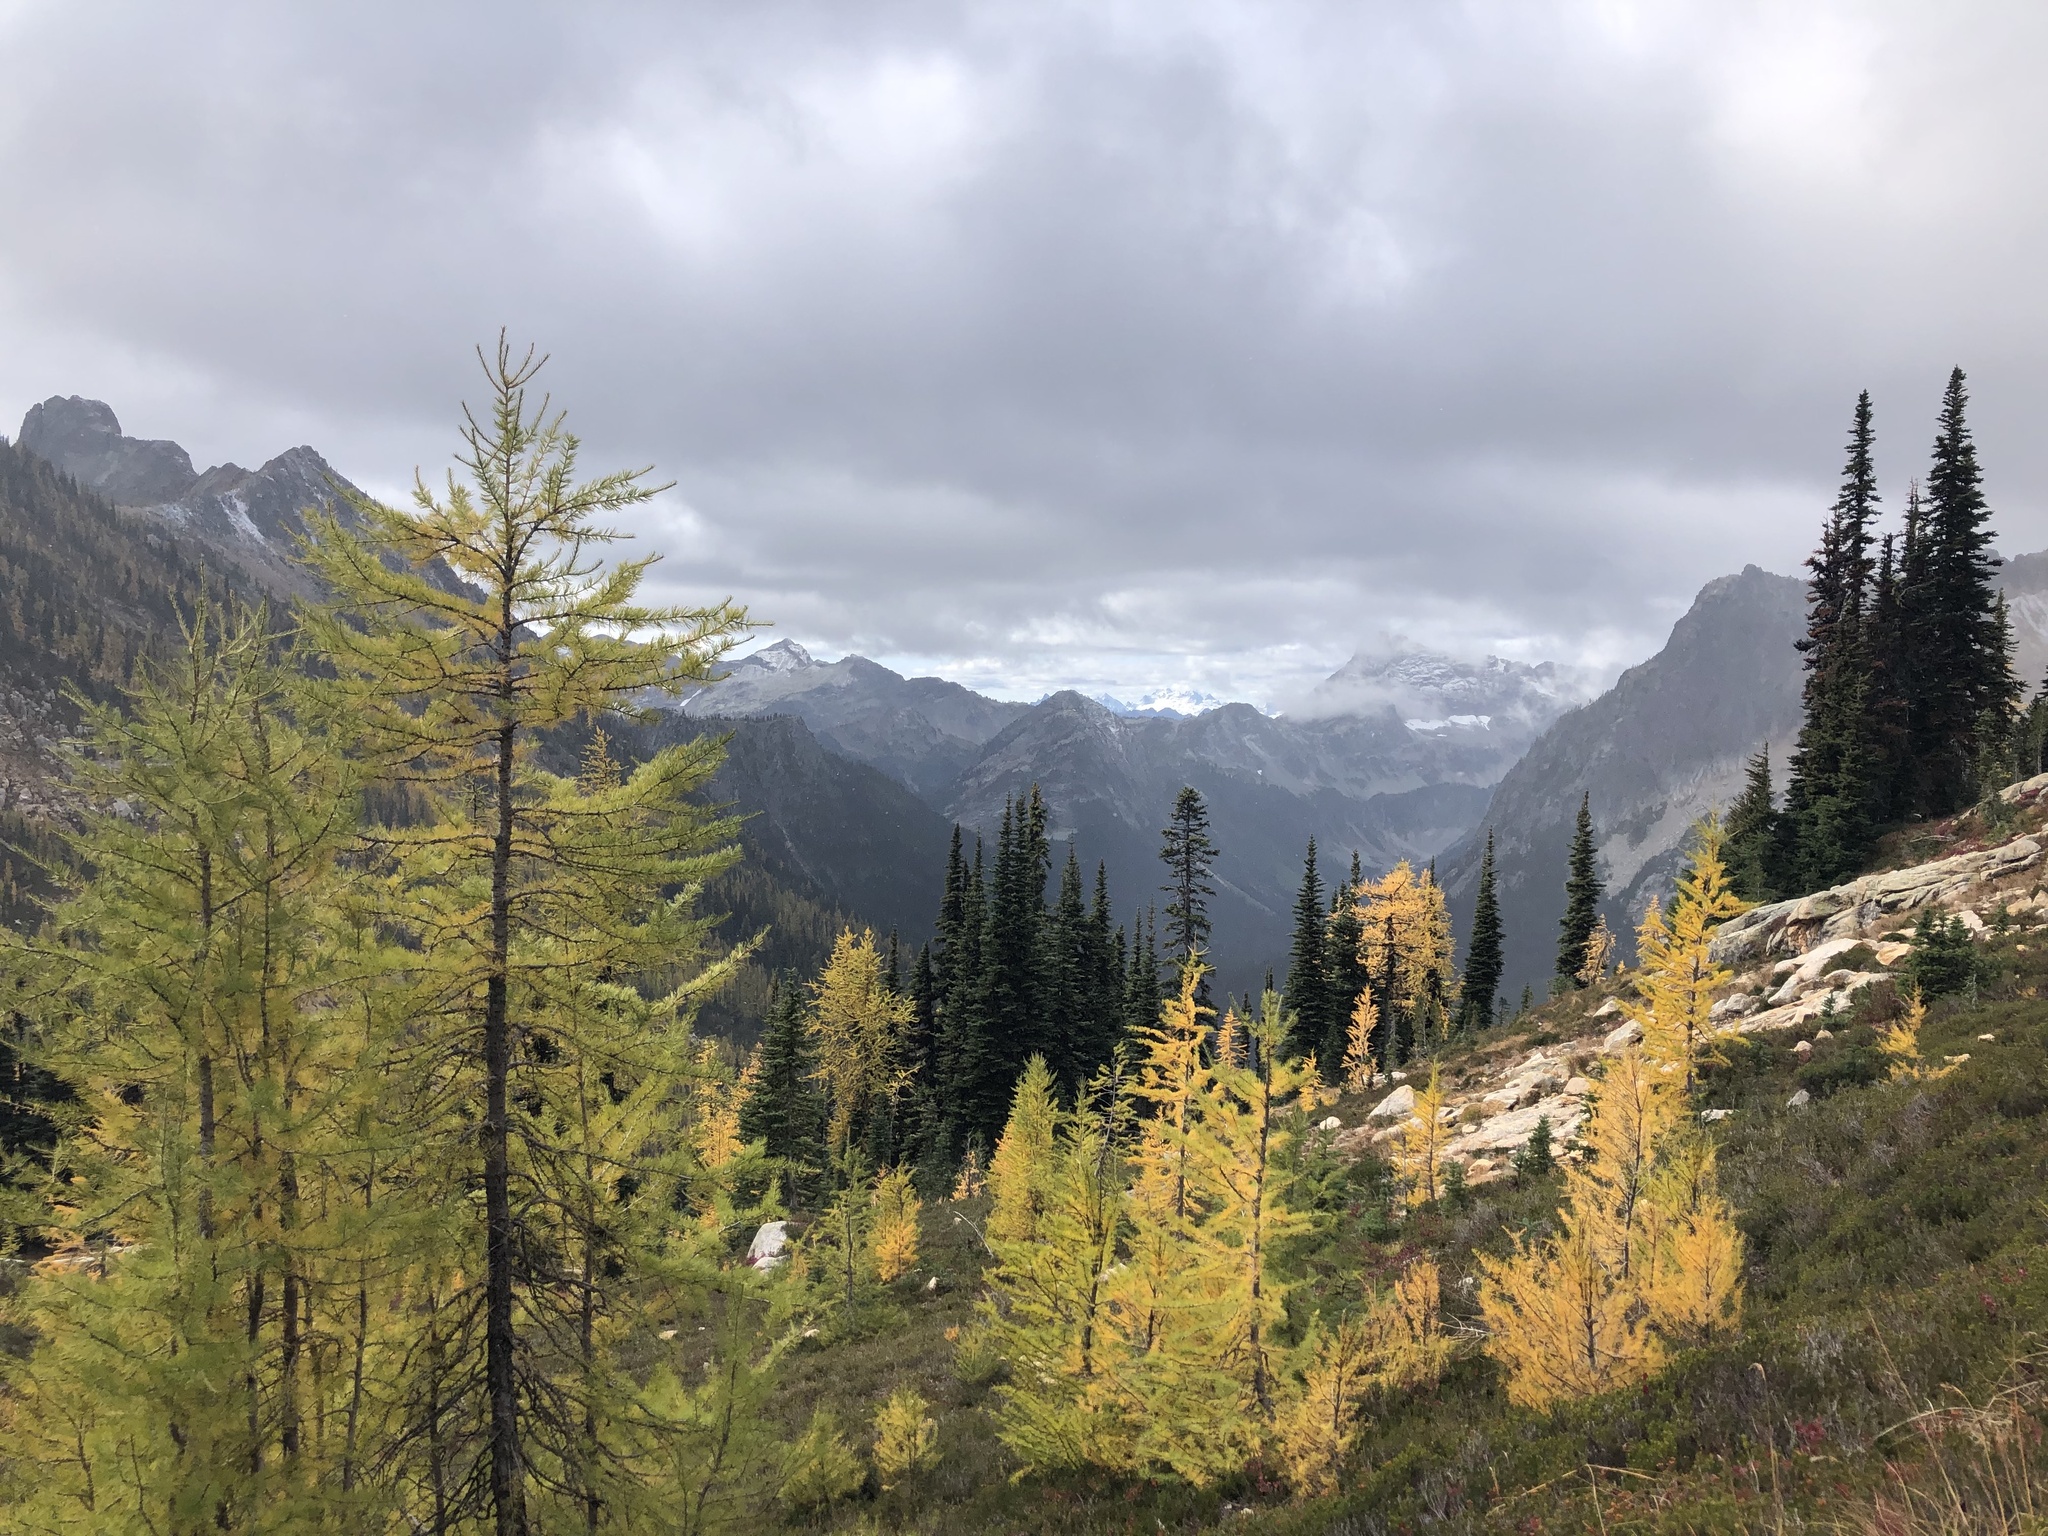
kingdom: Plantae
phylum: Tracheophyta
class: Pinopsida
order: Pinales
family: Pinaceae
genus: Abies
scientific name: Abies lasiocarpa
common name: Subalpine fir
